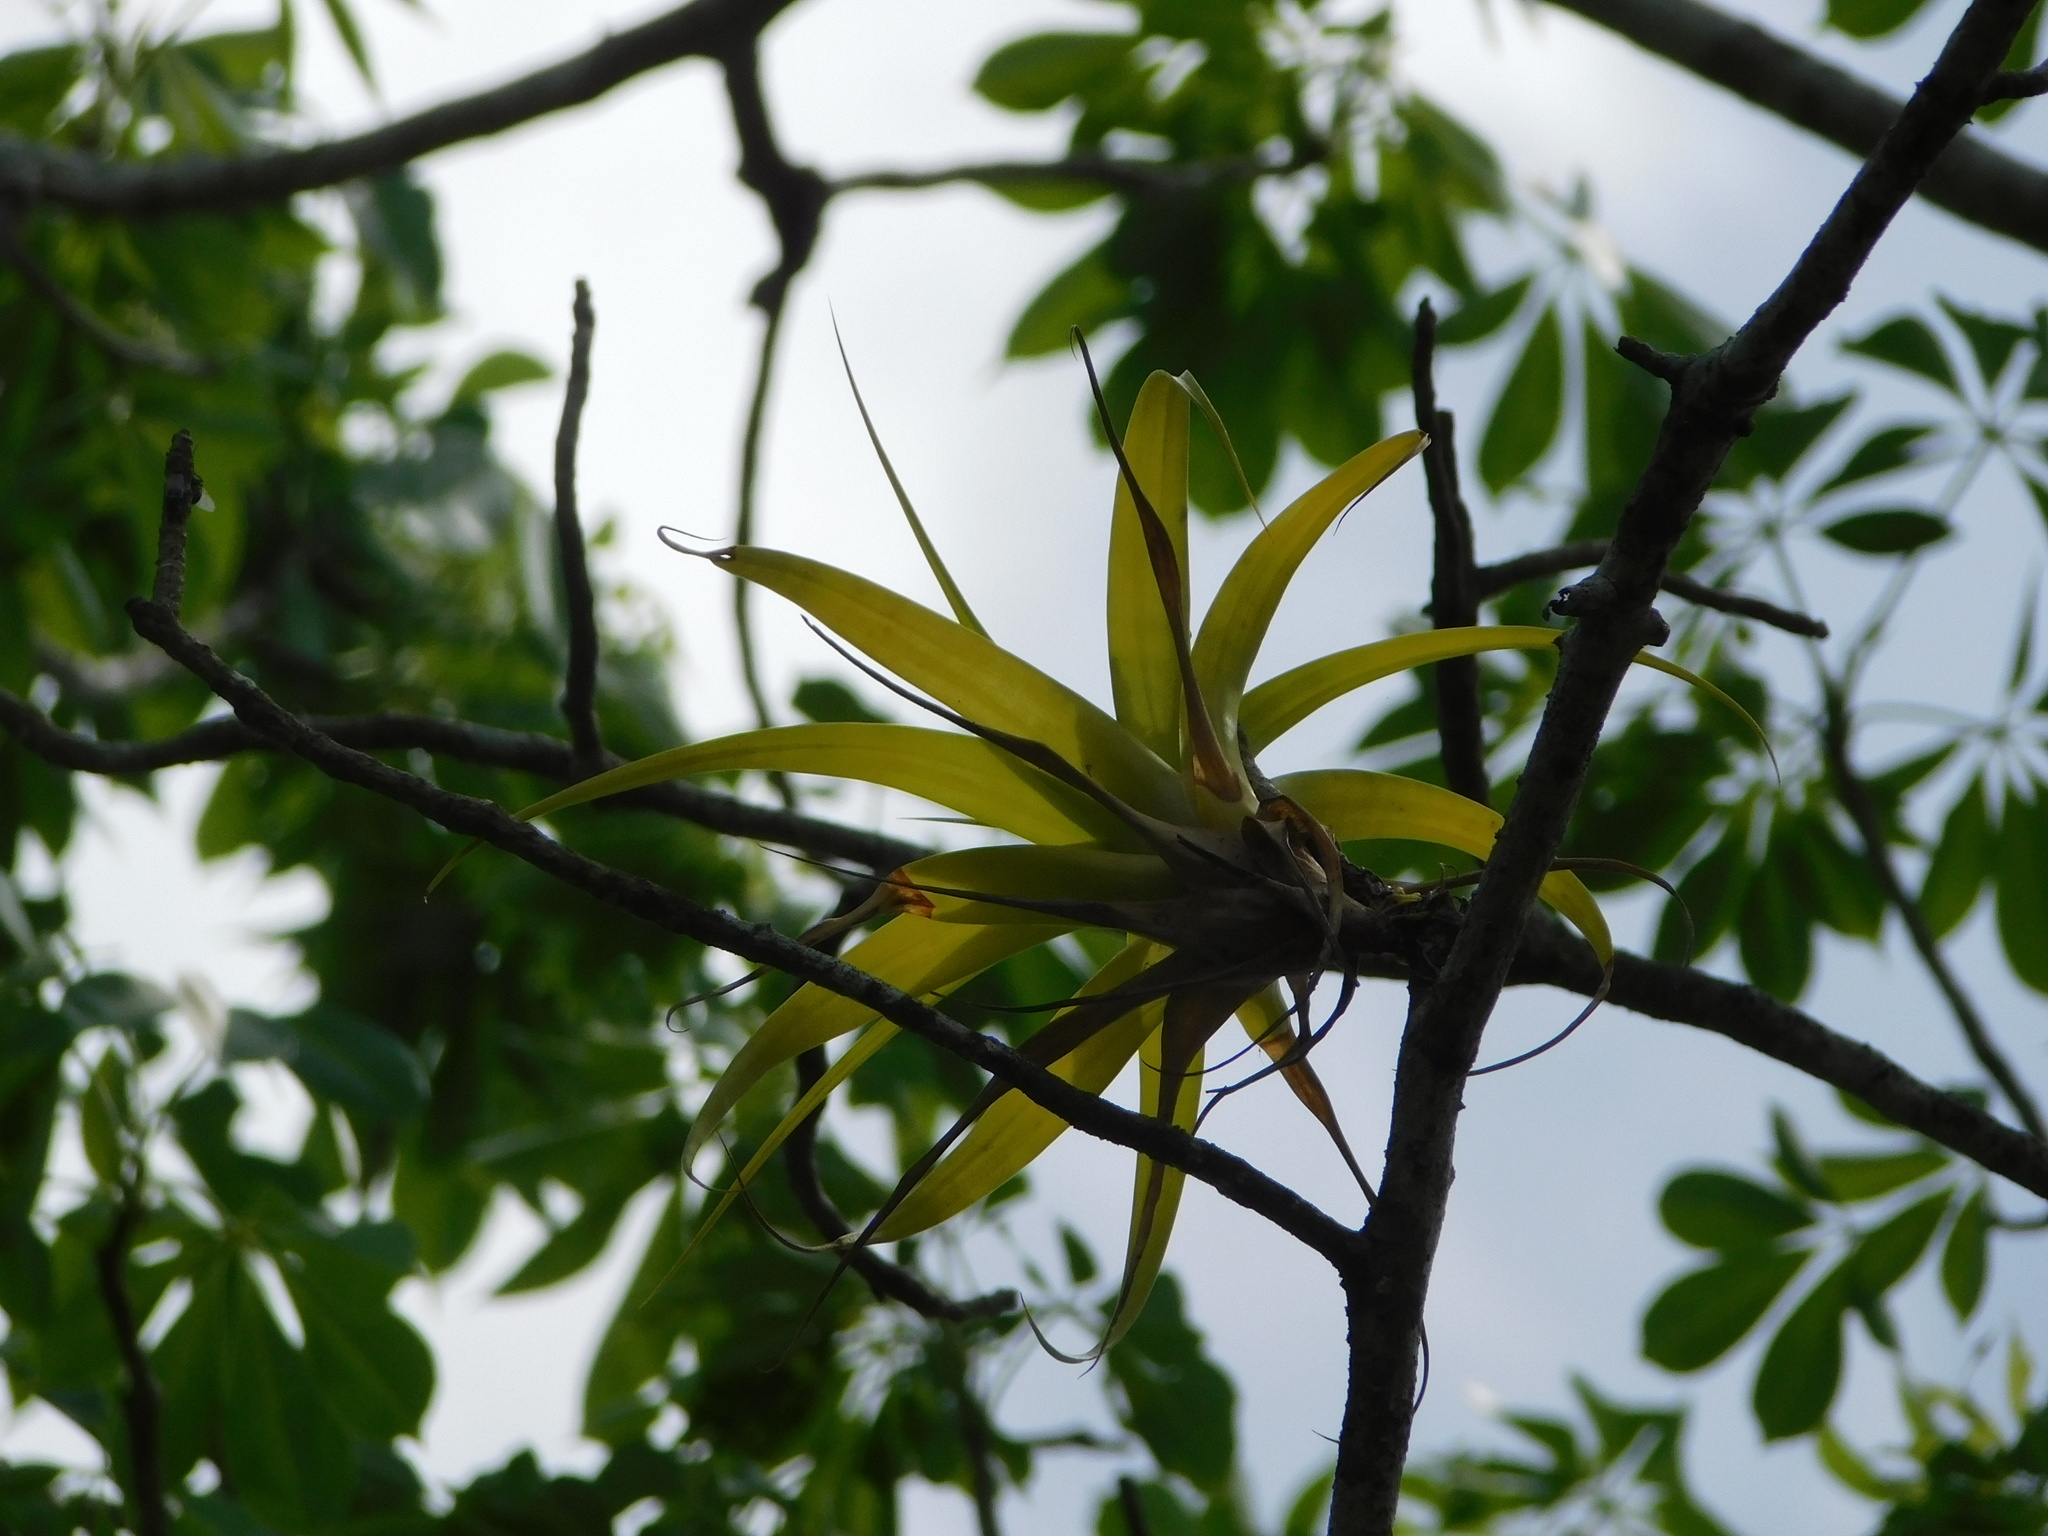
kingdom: Plantae
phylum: Tracheophyta
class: Liliopsida
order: Poales
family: Bromeliaceae
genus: Tillandsia
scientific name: Tillandsia elongata
